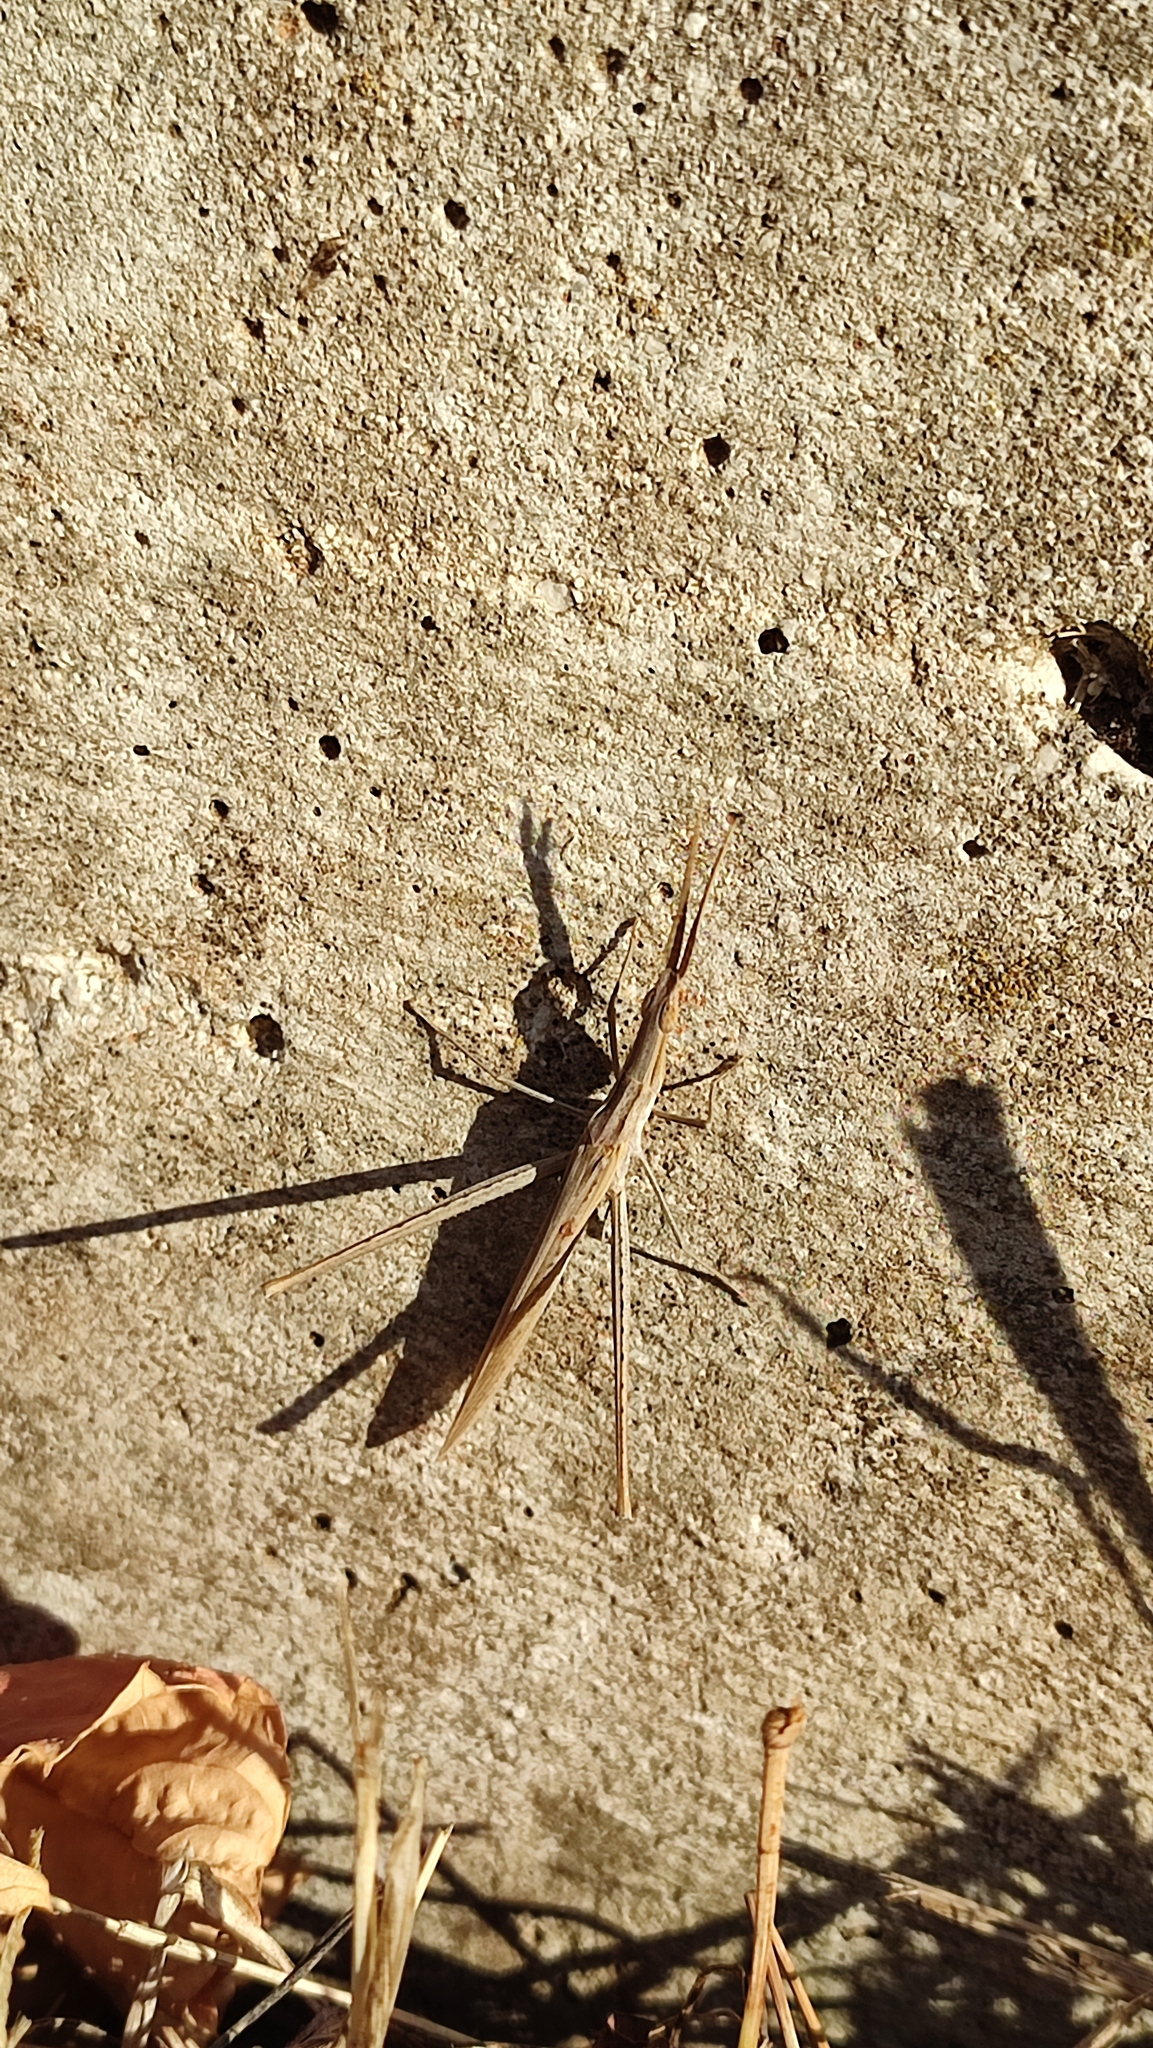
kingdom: Animalia
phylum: Arthropoda
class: Insecta
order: Orthoptera
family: Acrididae
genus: Acrida
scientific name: Acrida ungarica
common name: Common cone-headed grasshopper
